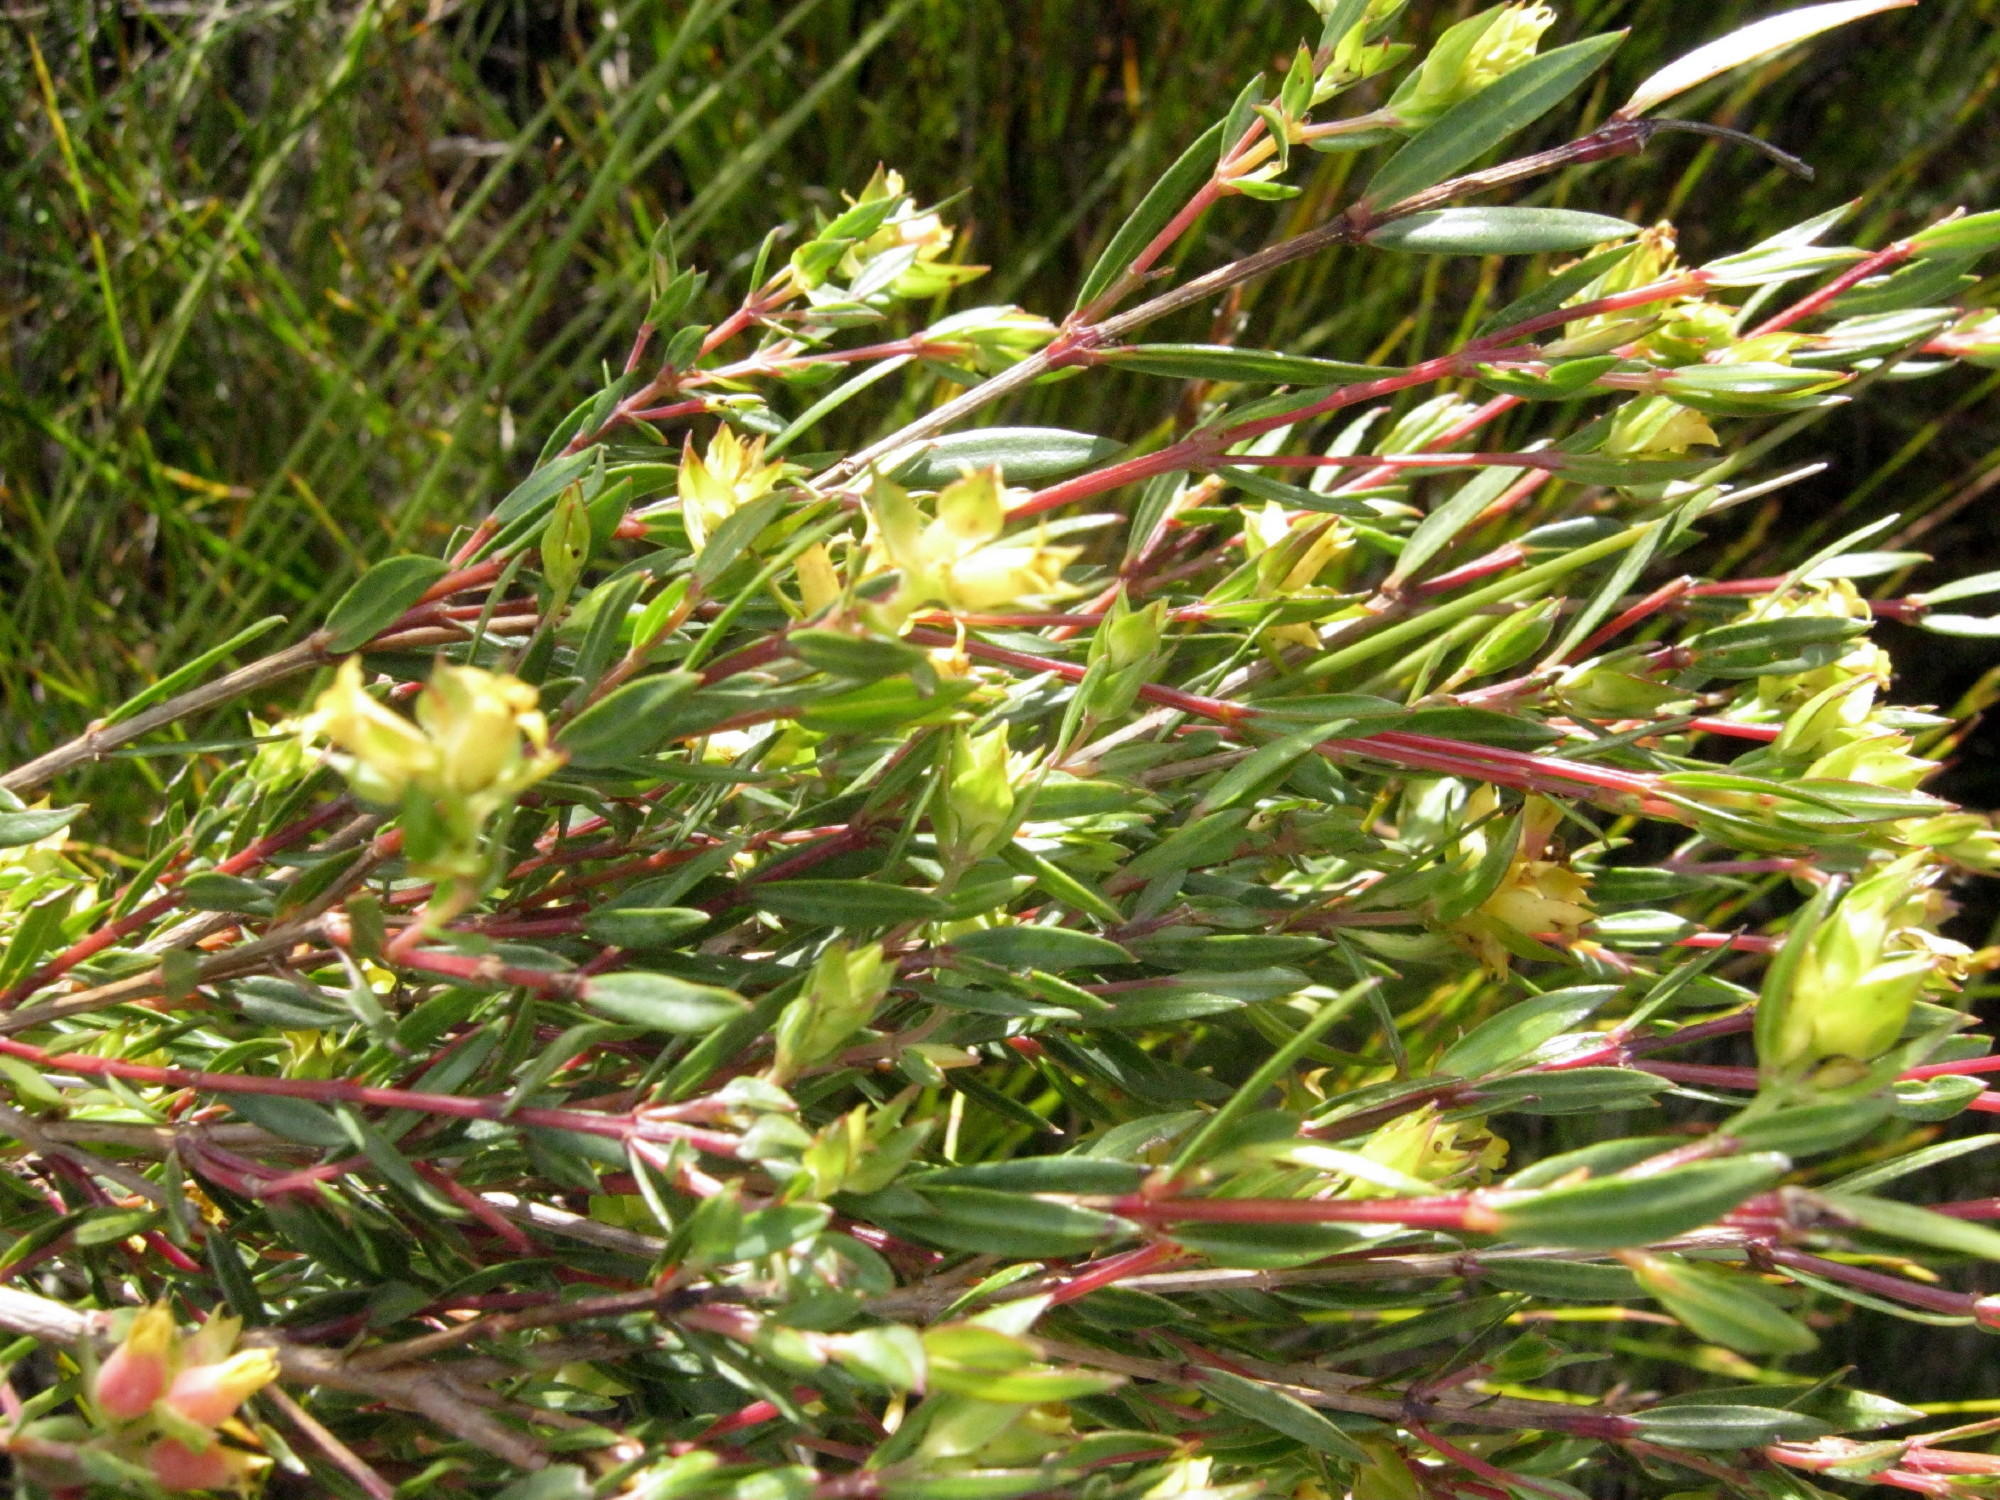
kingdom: Plantae
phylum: Tracheophyta
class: Magnoliopsida
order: Myrtales
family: Penaeaceae
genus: Penaea
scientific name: Penaea acutifolia
